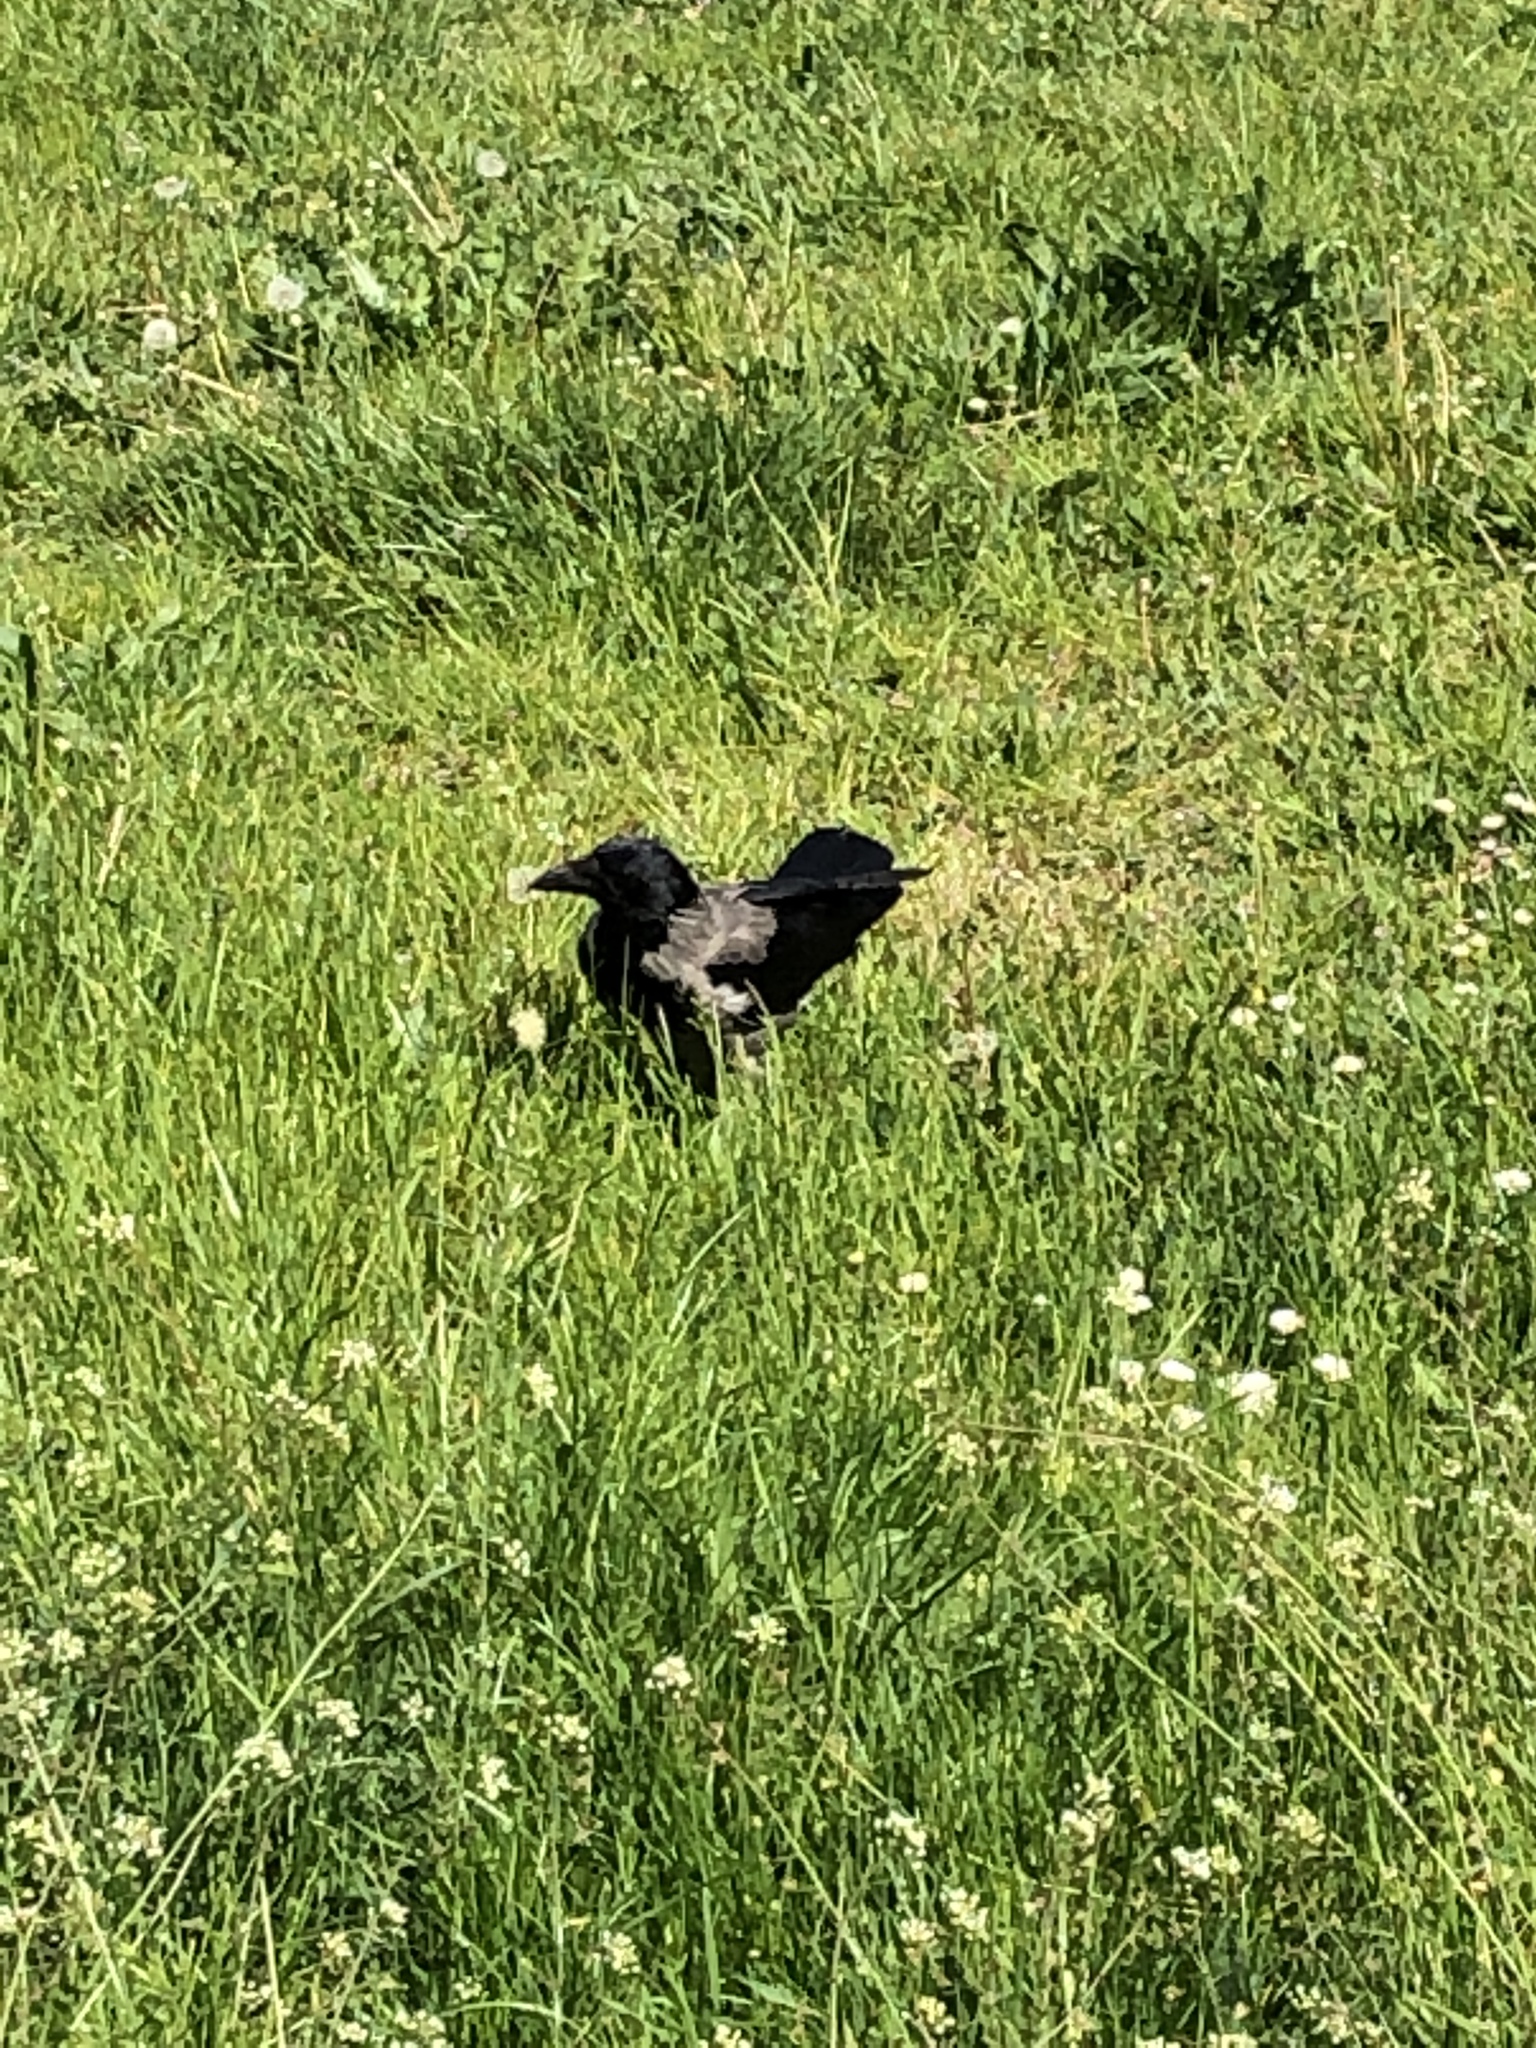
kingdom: Animalia
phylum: Chordata
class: Aves
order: Passeriformes
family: Corvidae
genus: Corvus
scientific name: Corvus cornix
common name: Hooded crow
